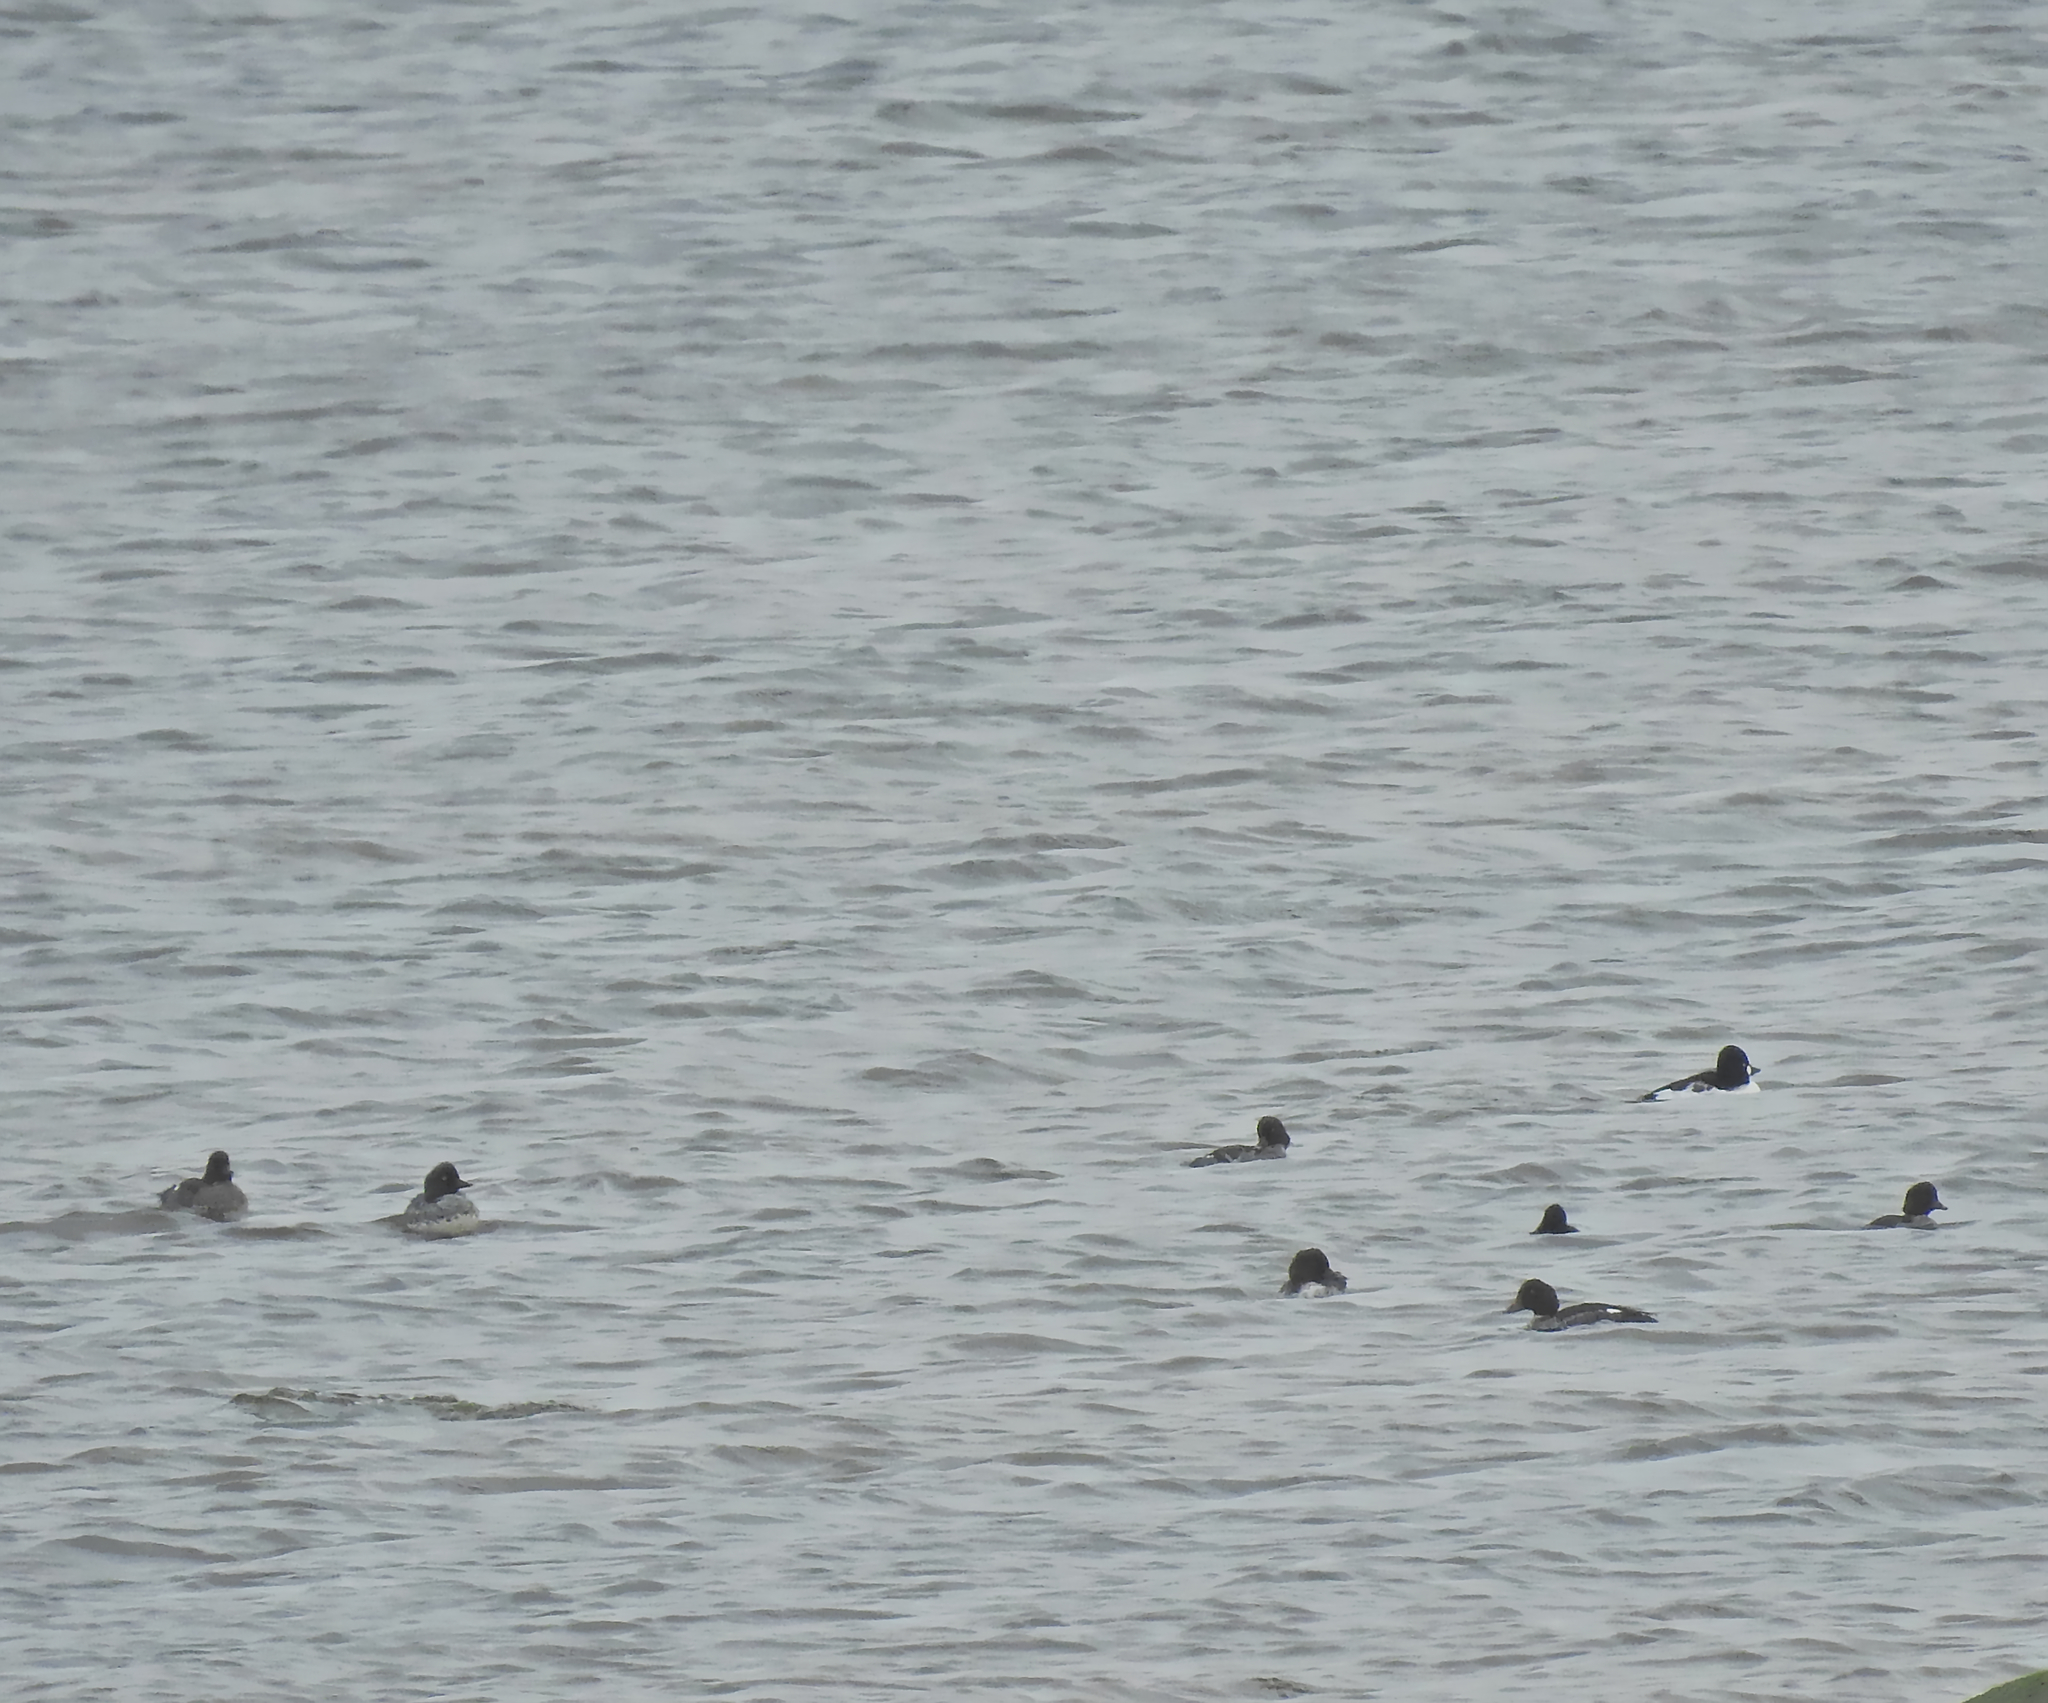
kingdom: Animalia
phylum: Chordata
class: Aves
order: Anseriformes
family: Anatidae
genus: Bucephala
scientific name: Bucephala clangula
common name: Common goldeneye
